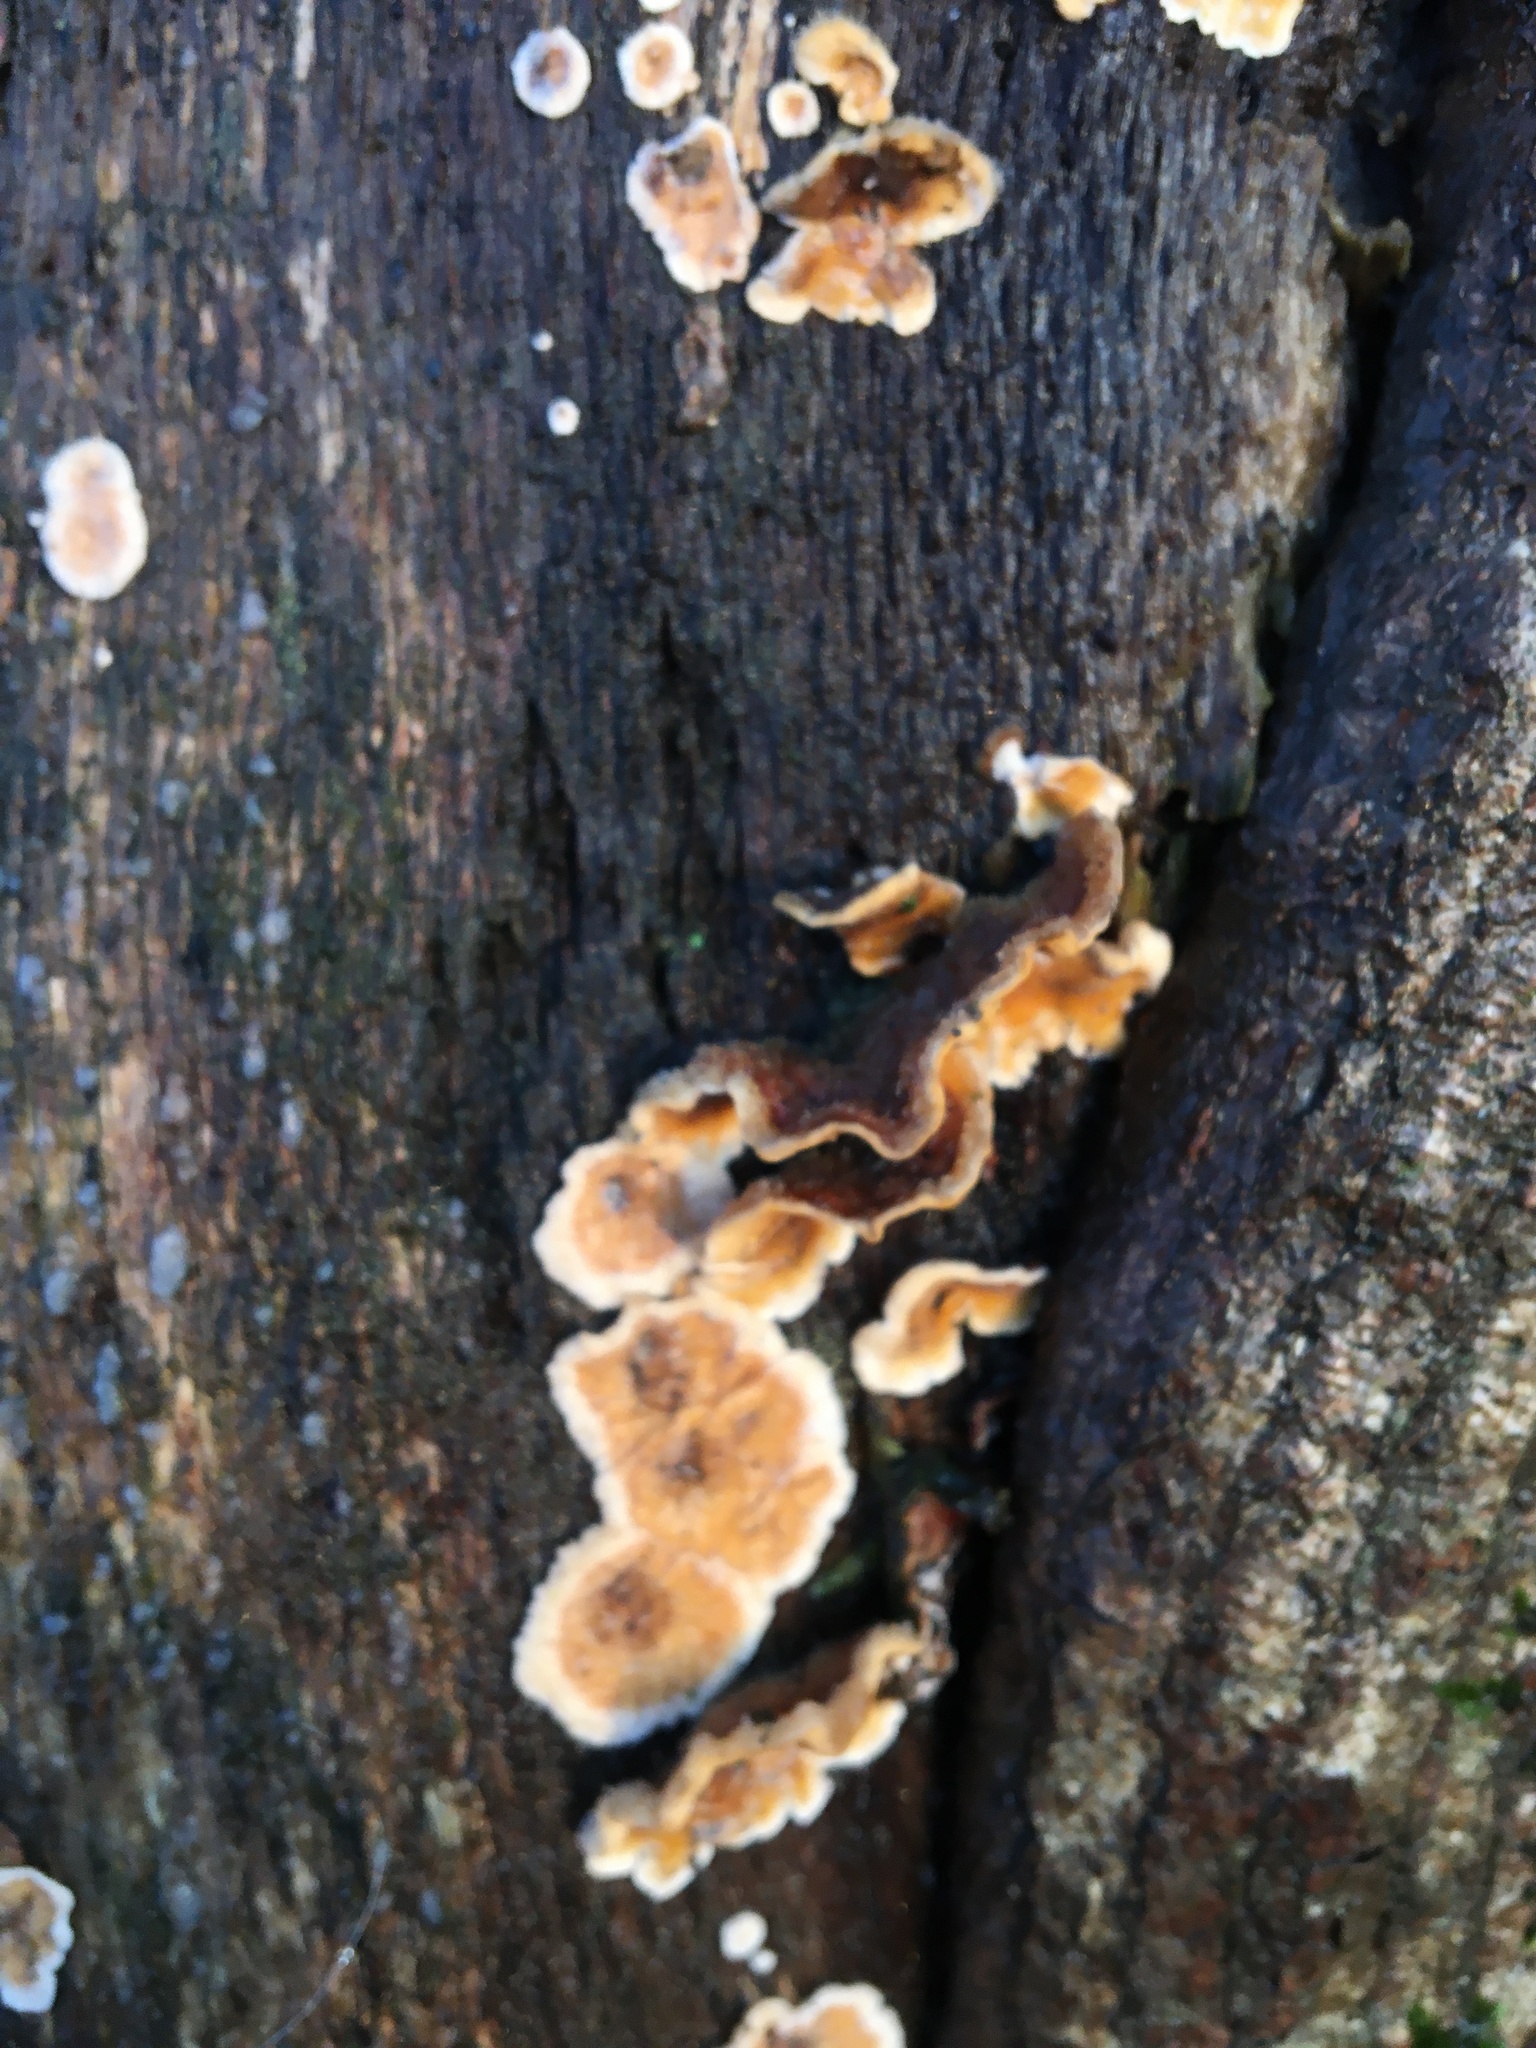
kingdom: Fungi
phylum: Basidiomycota
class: Agaricomycetes
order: Russulales
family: Stereaceae
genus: Stereum
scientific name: Stereum hirsutum
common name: Hairy curtain crust
